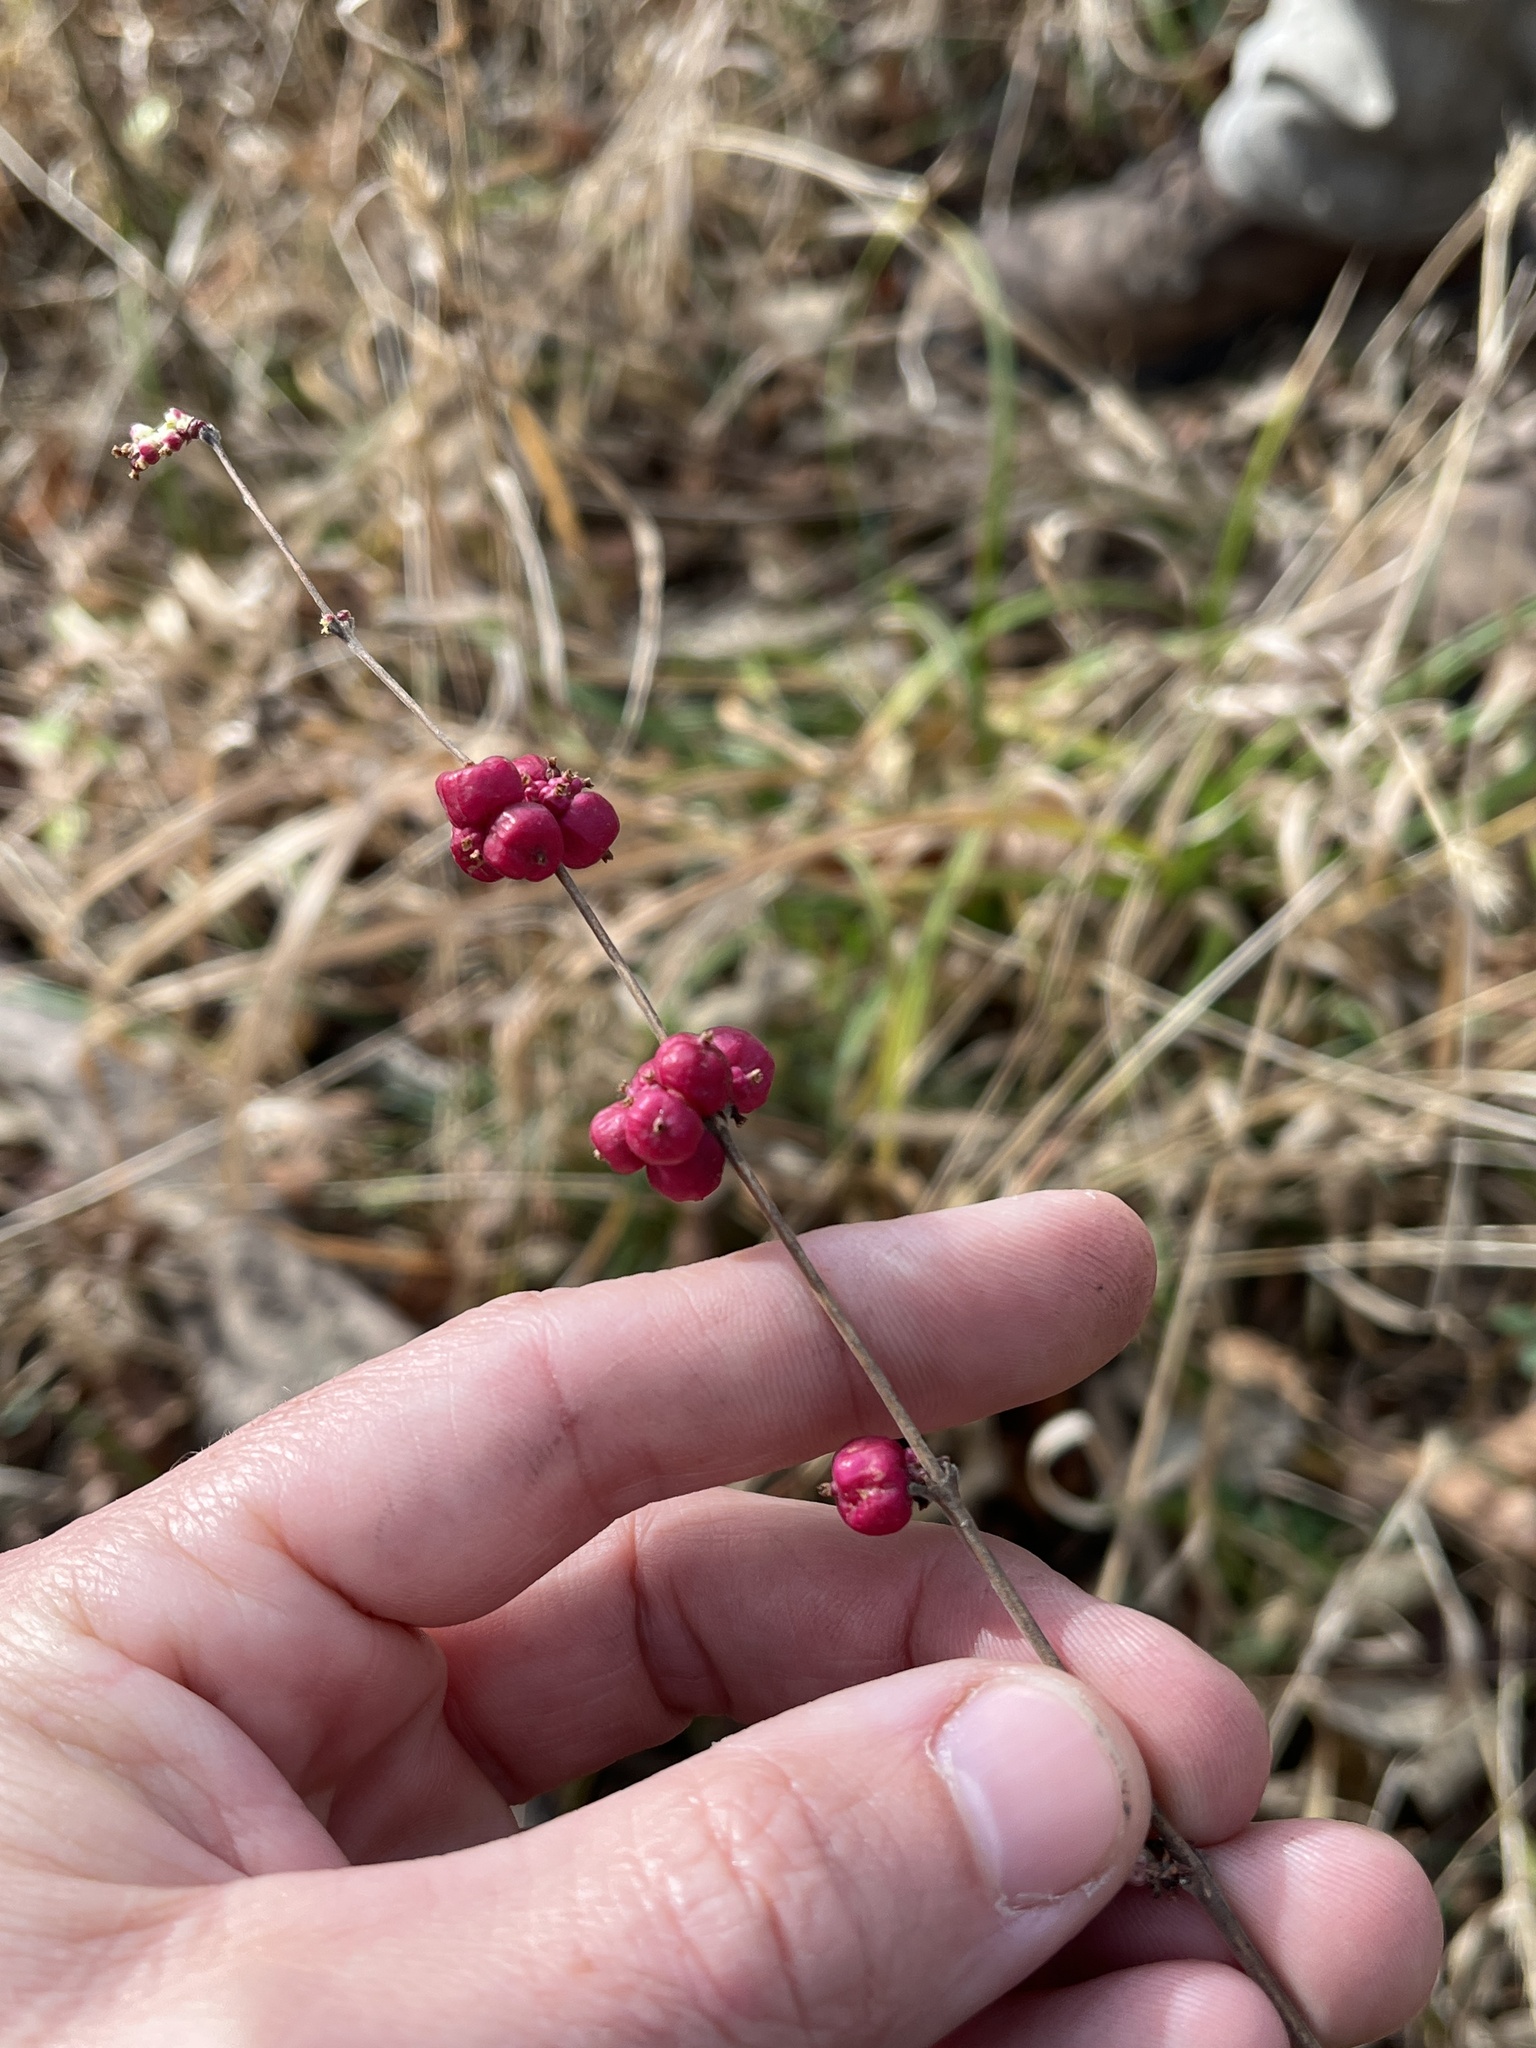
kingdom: Plantae
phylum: Tracheophyta
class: Magnoliopsida
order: Dipsacales
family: Caprifoliaceae
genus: Symphoricarpos
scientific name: Symphoricarpos orbiculatus
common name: Coralberry
